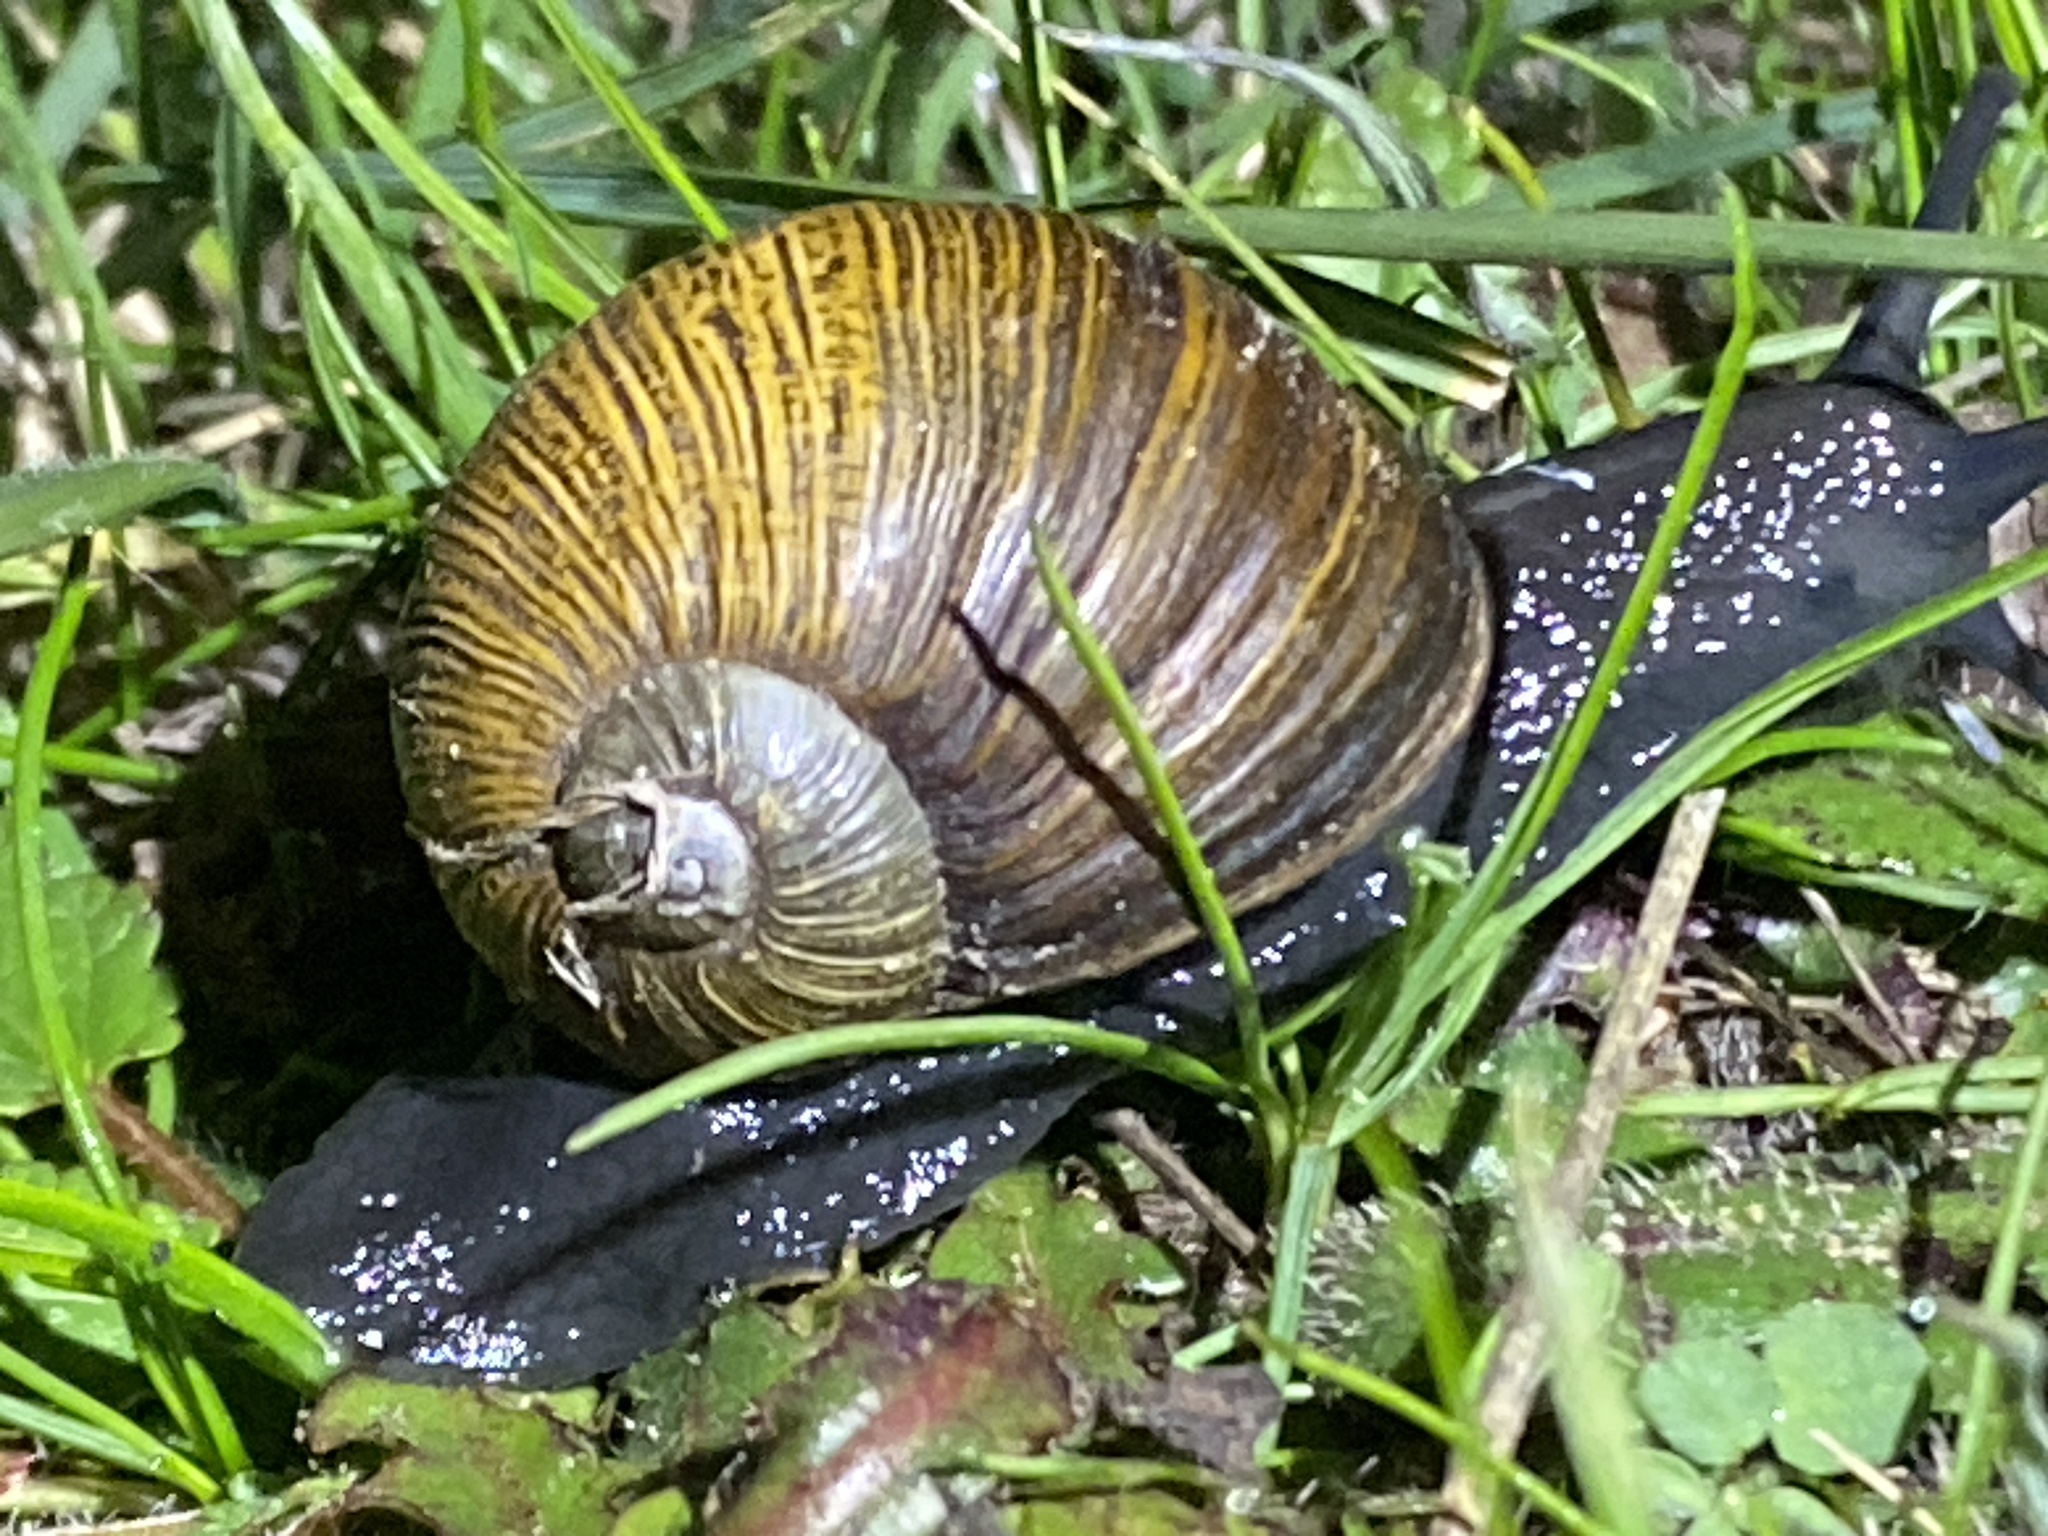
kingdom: Animalia
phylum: Mollusca
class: Gastropoda
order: Stylommatophora
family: Helicidae
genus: Cantareus
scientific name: Cantareus apertus
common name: Green gardensnail
